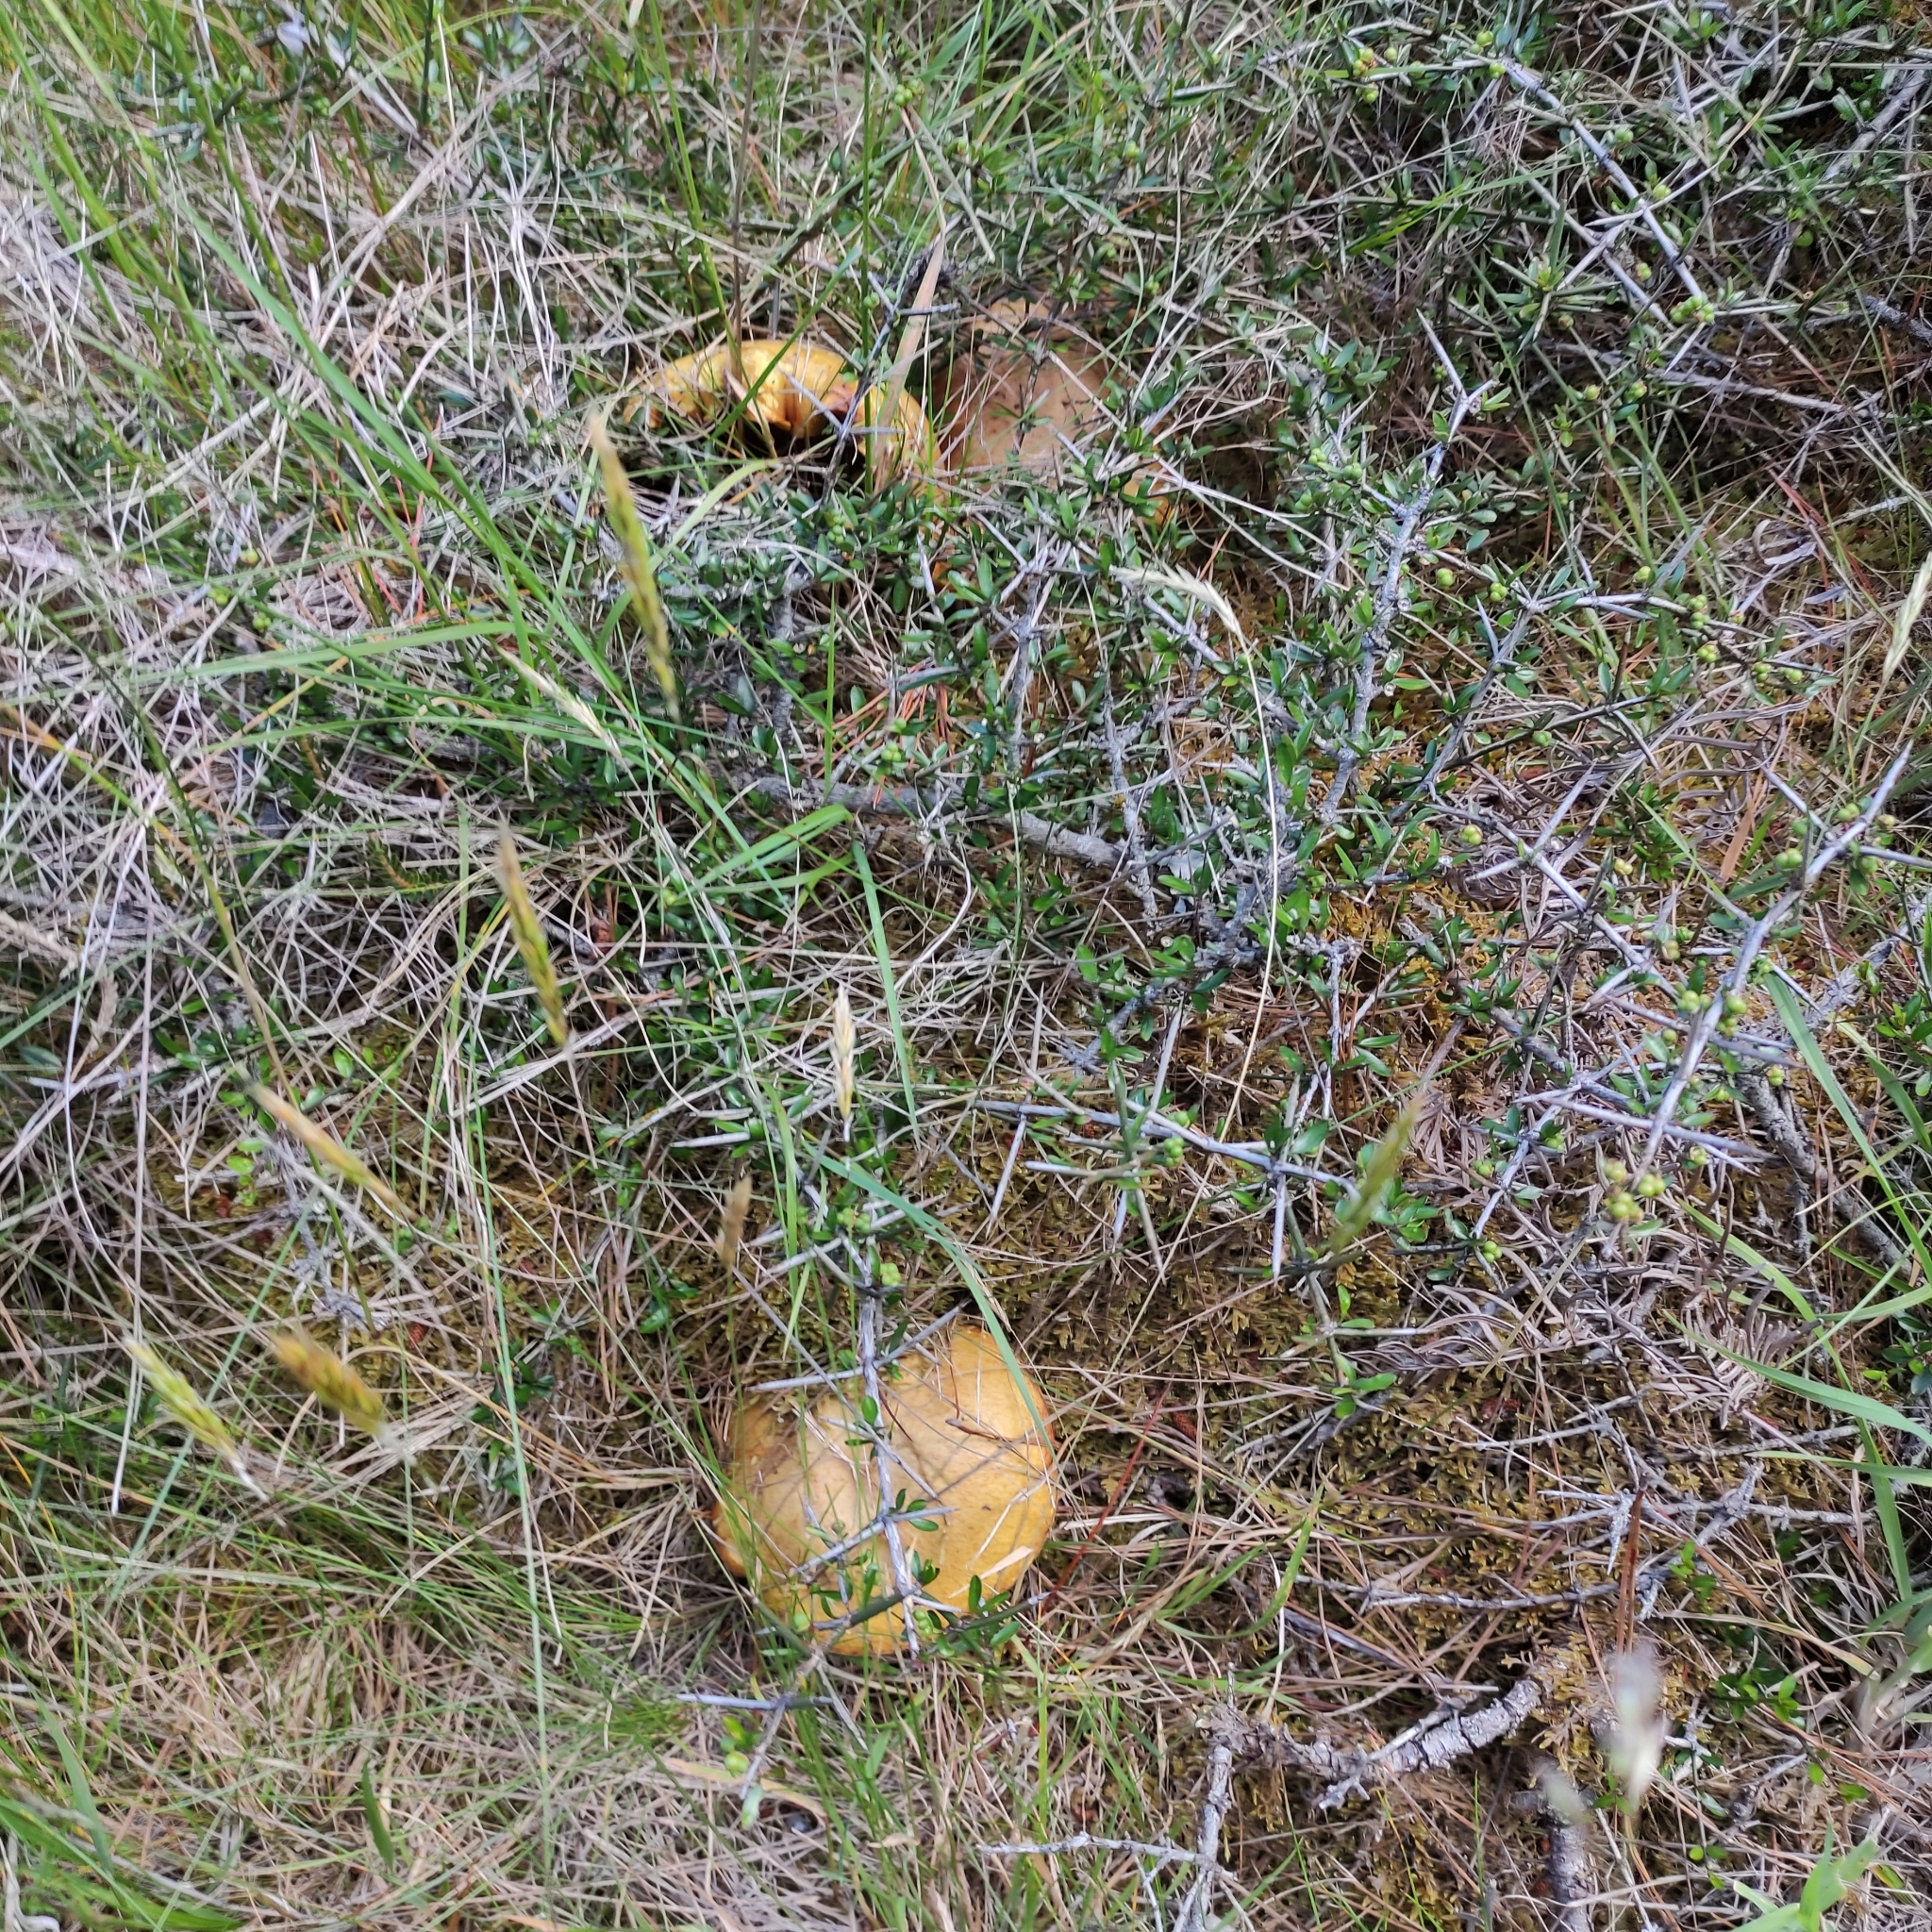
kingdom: Fungi
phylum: Basidiomycota
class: Agaricomycetes
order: Boletales
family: Suillaceae
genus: Suillus
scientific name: Suillus granulatus
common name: Weeping bolete
